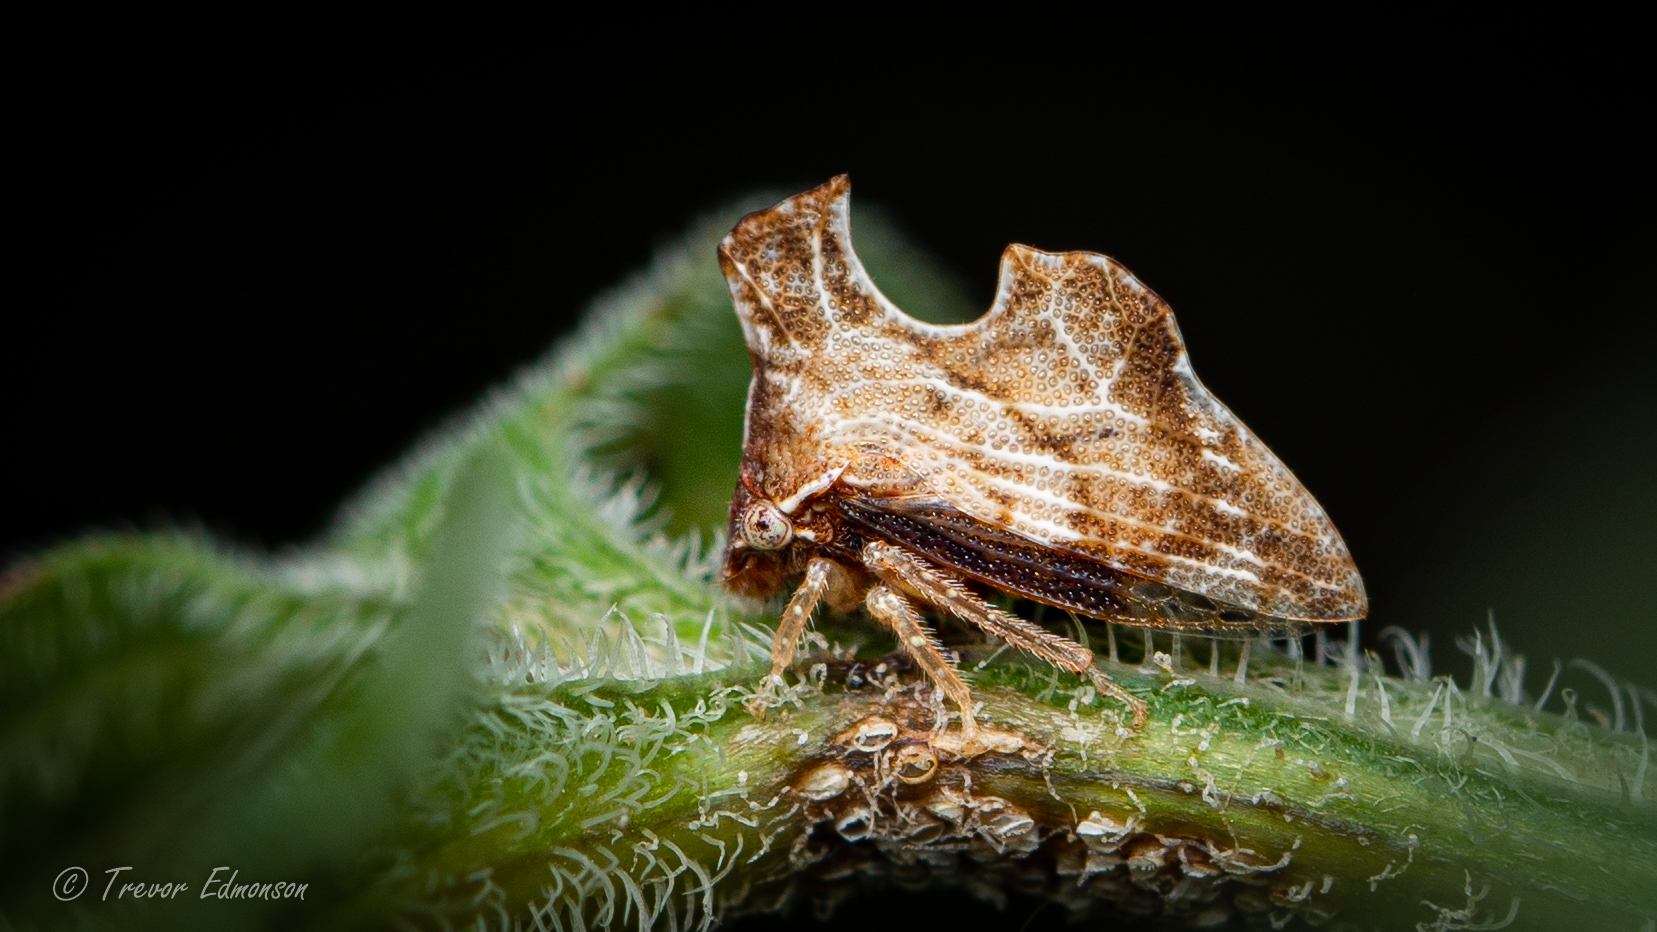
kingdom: Animalia
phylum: Arthropoda
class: Insecta
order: Hemiptera
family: Membracidae
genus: Entylia
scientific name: Entylia carinata
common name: Keeled treehopper
